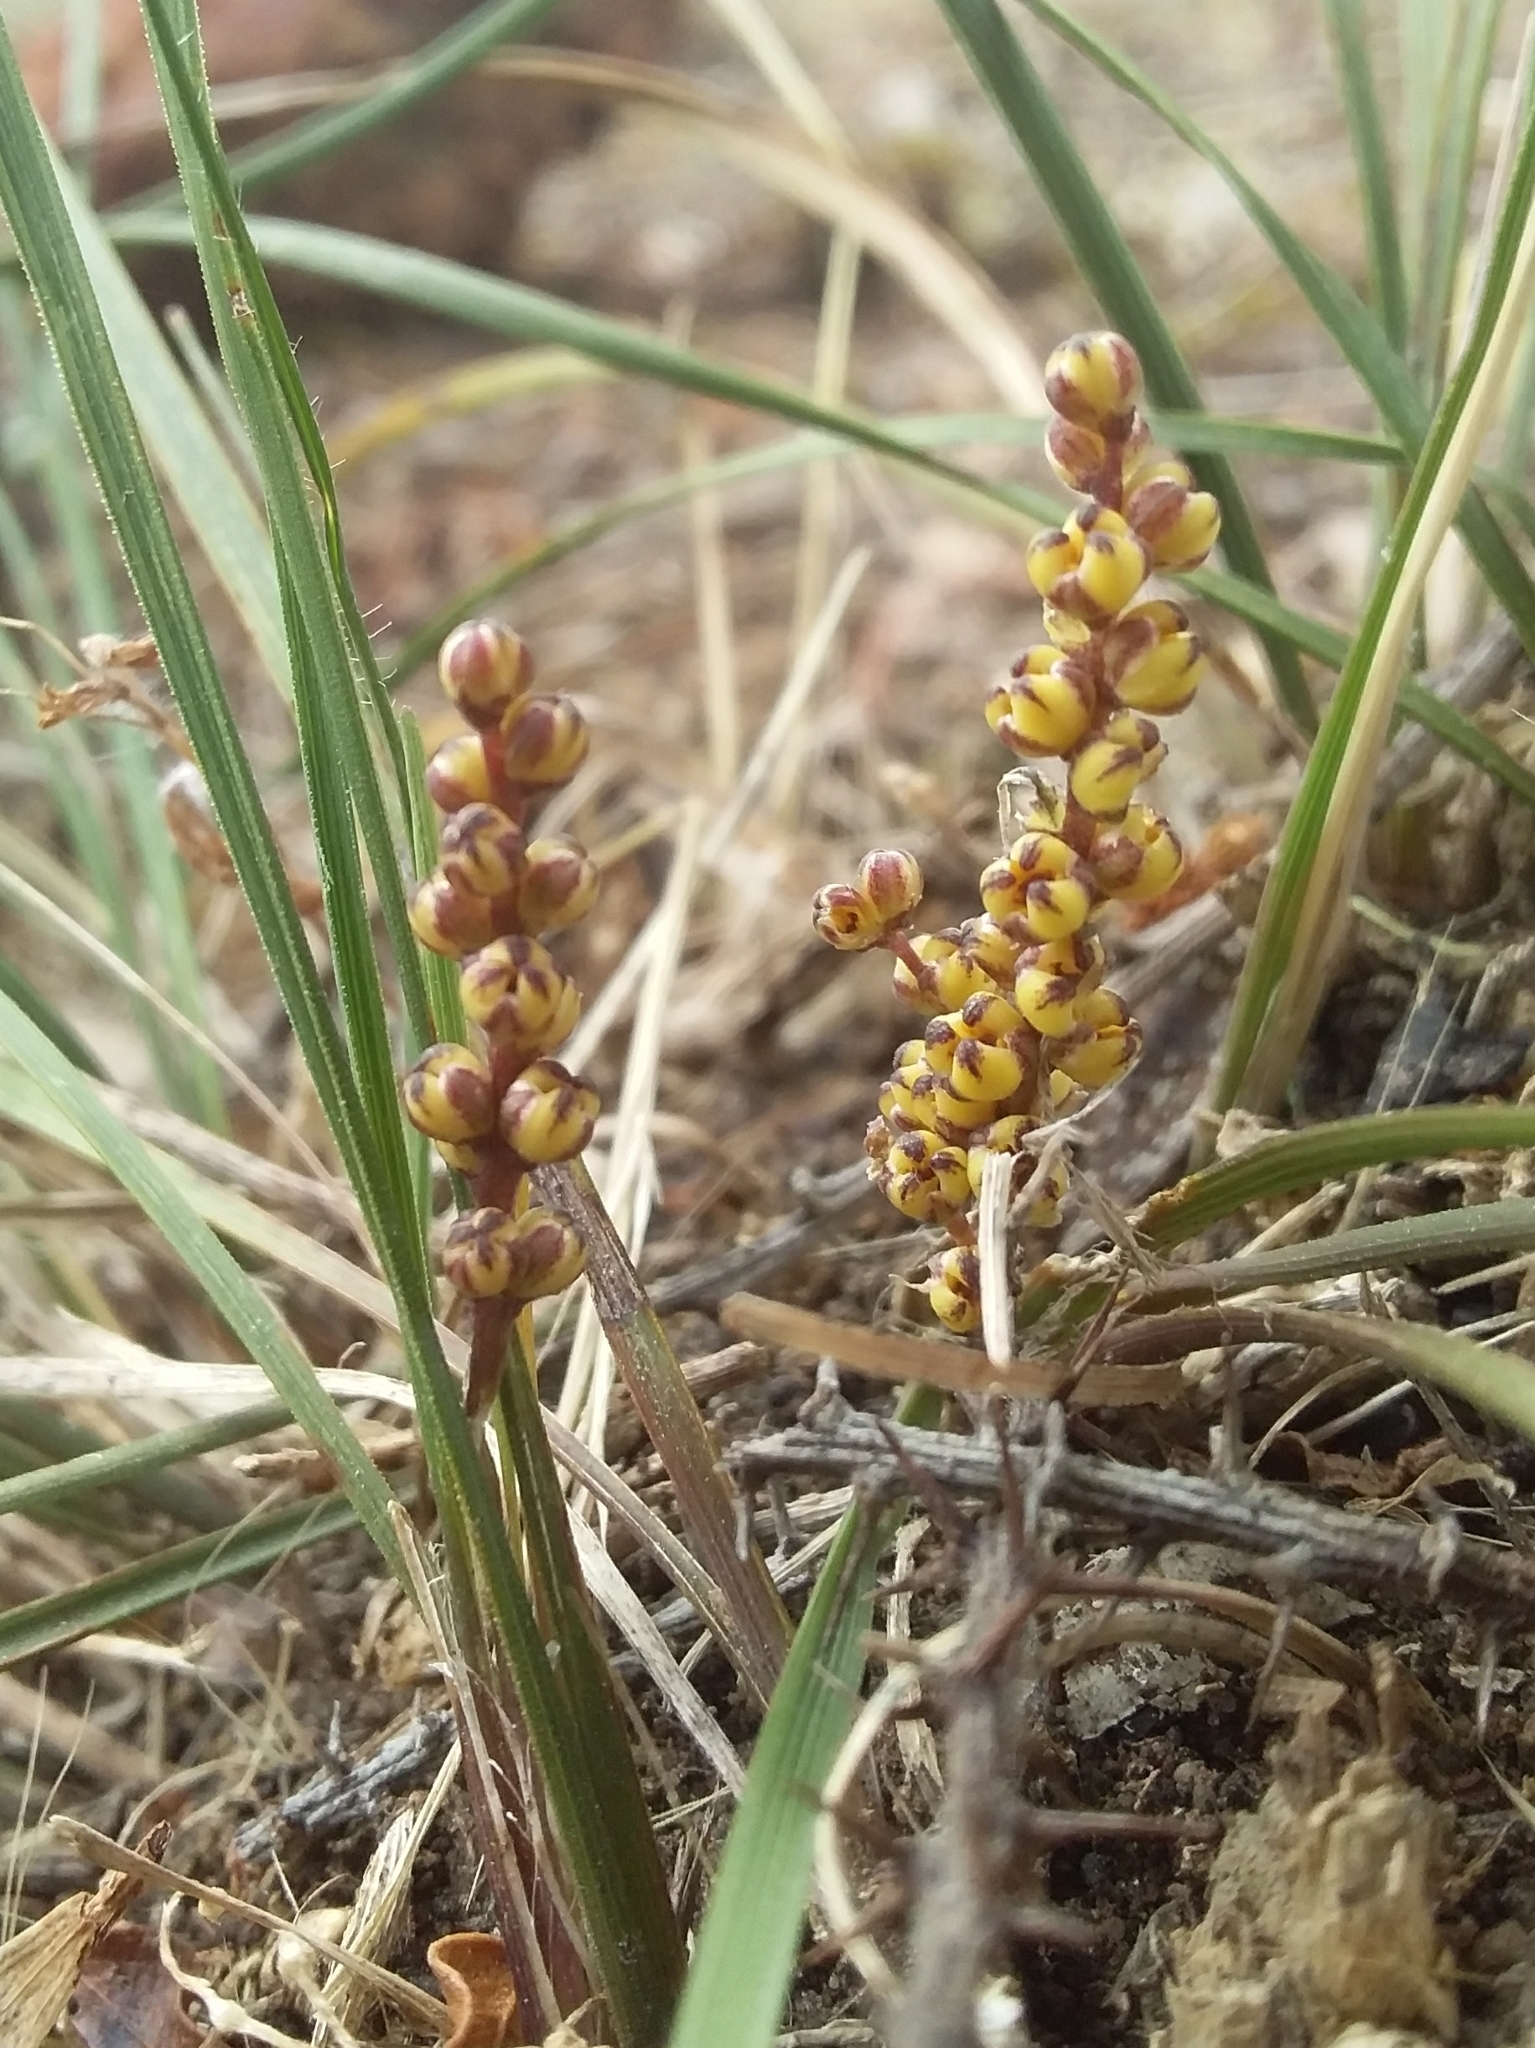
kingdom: Plantae
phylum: Tracheophyta
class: Liliopsida
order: Asparagales
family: Asparagaceae
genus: Lomandra
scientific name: Lomandra sororia
